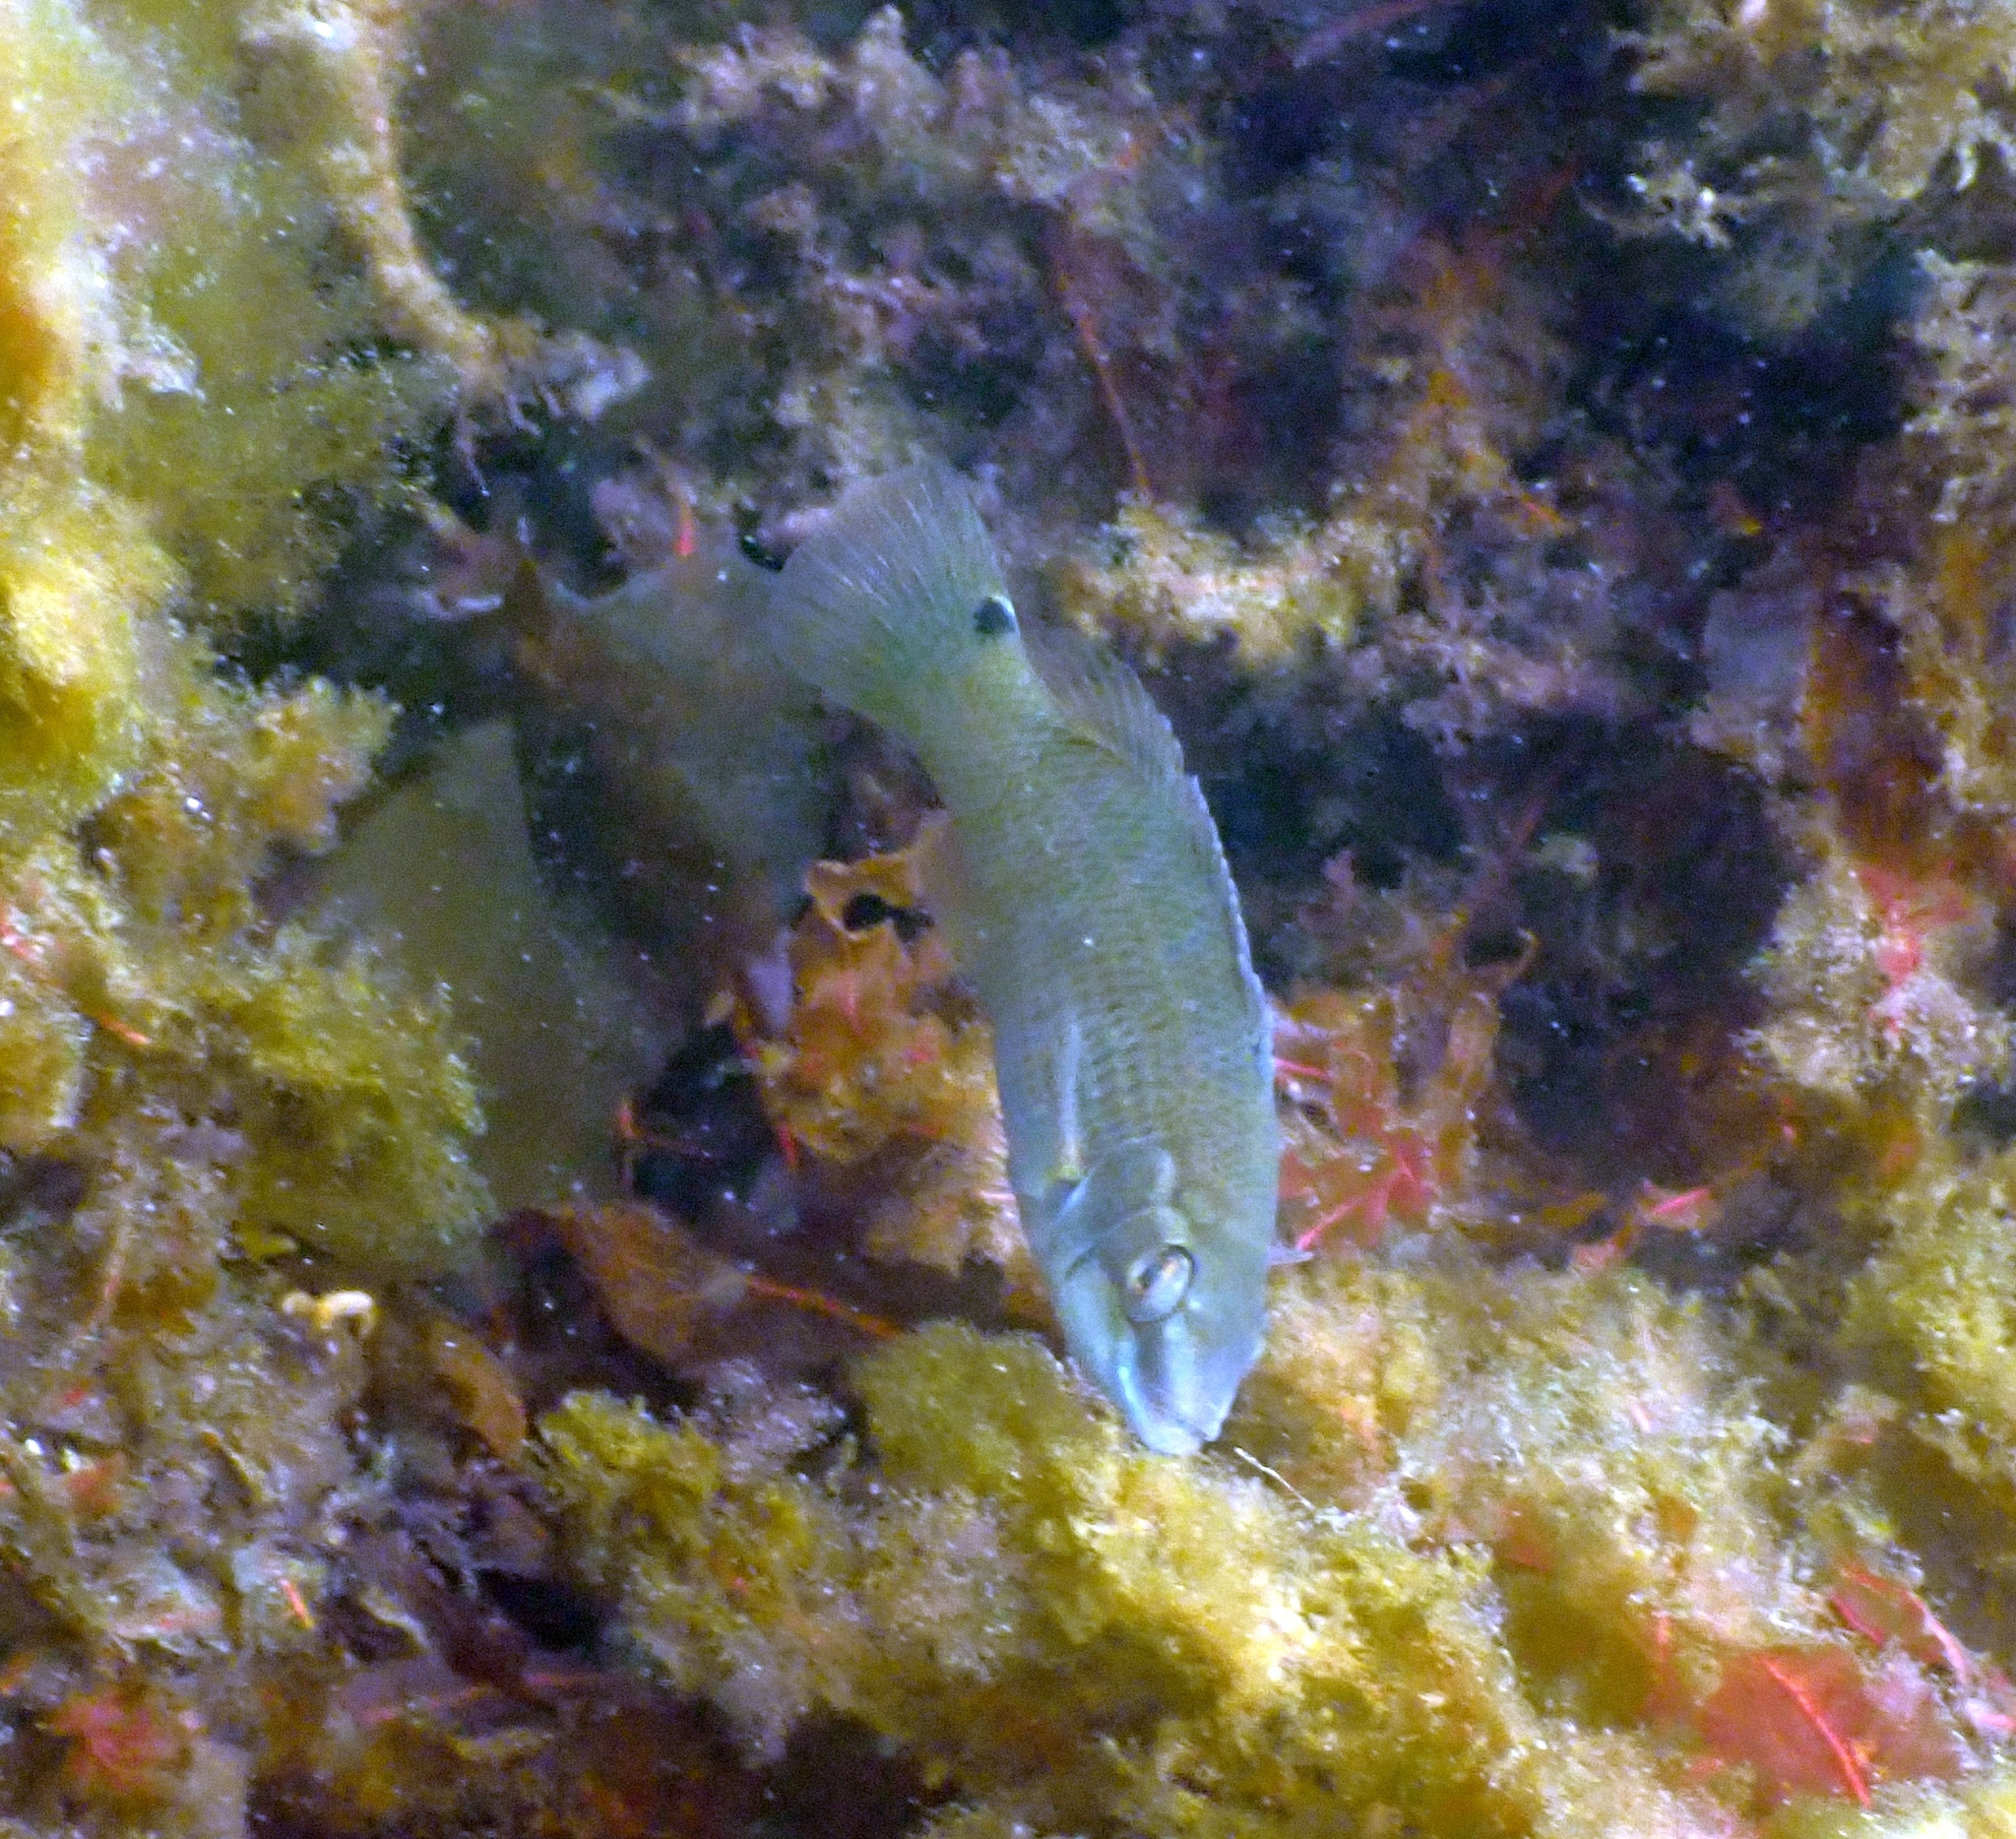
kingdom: Animalia
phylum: Chordata
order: Perciformes
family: Labridae
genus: Ctenolabrus
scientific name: Ctenolabrus rupestris
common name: Goldsinny
